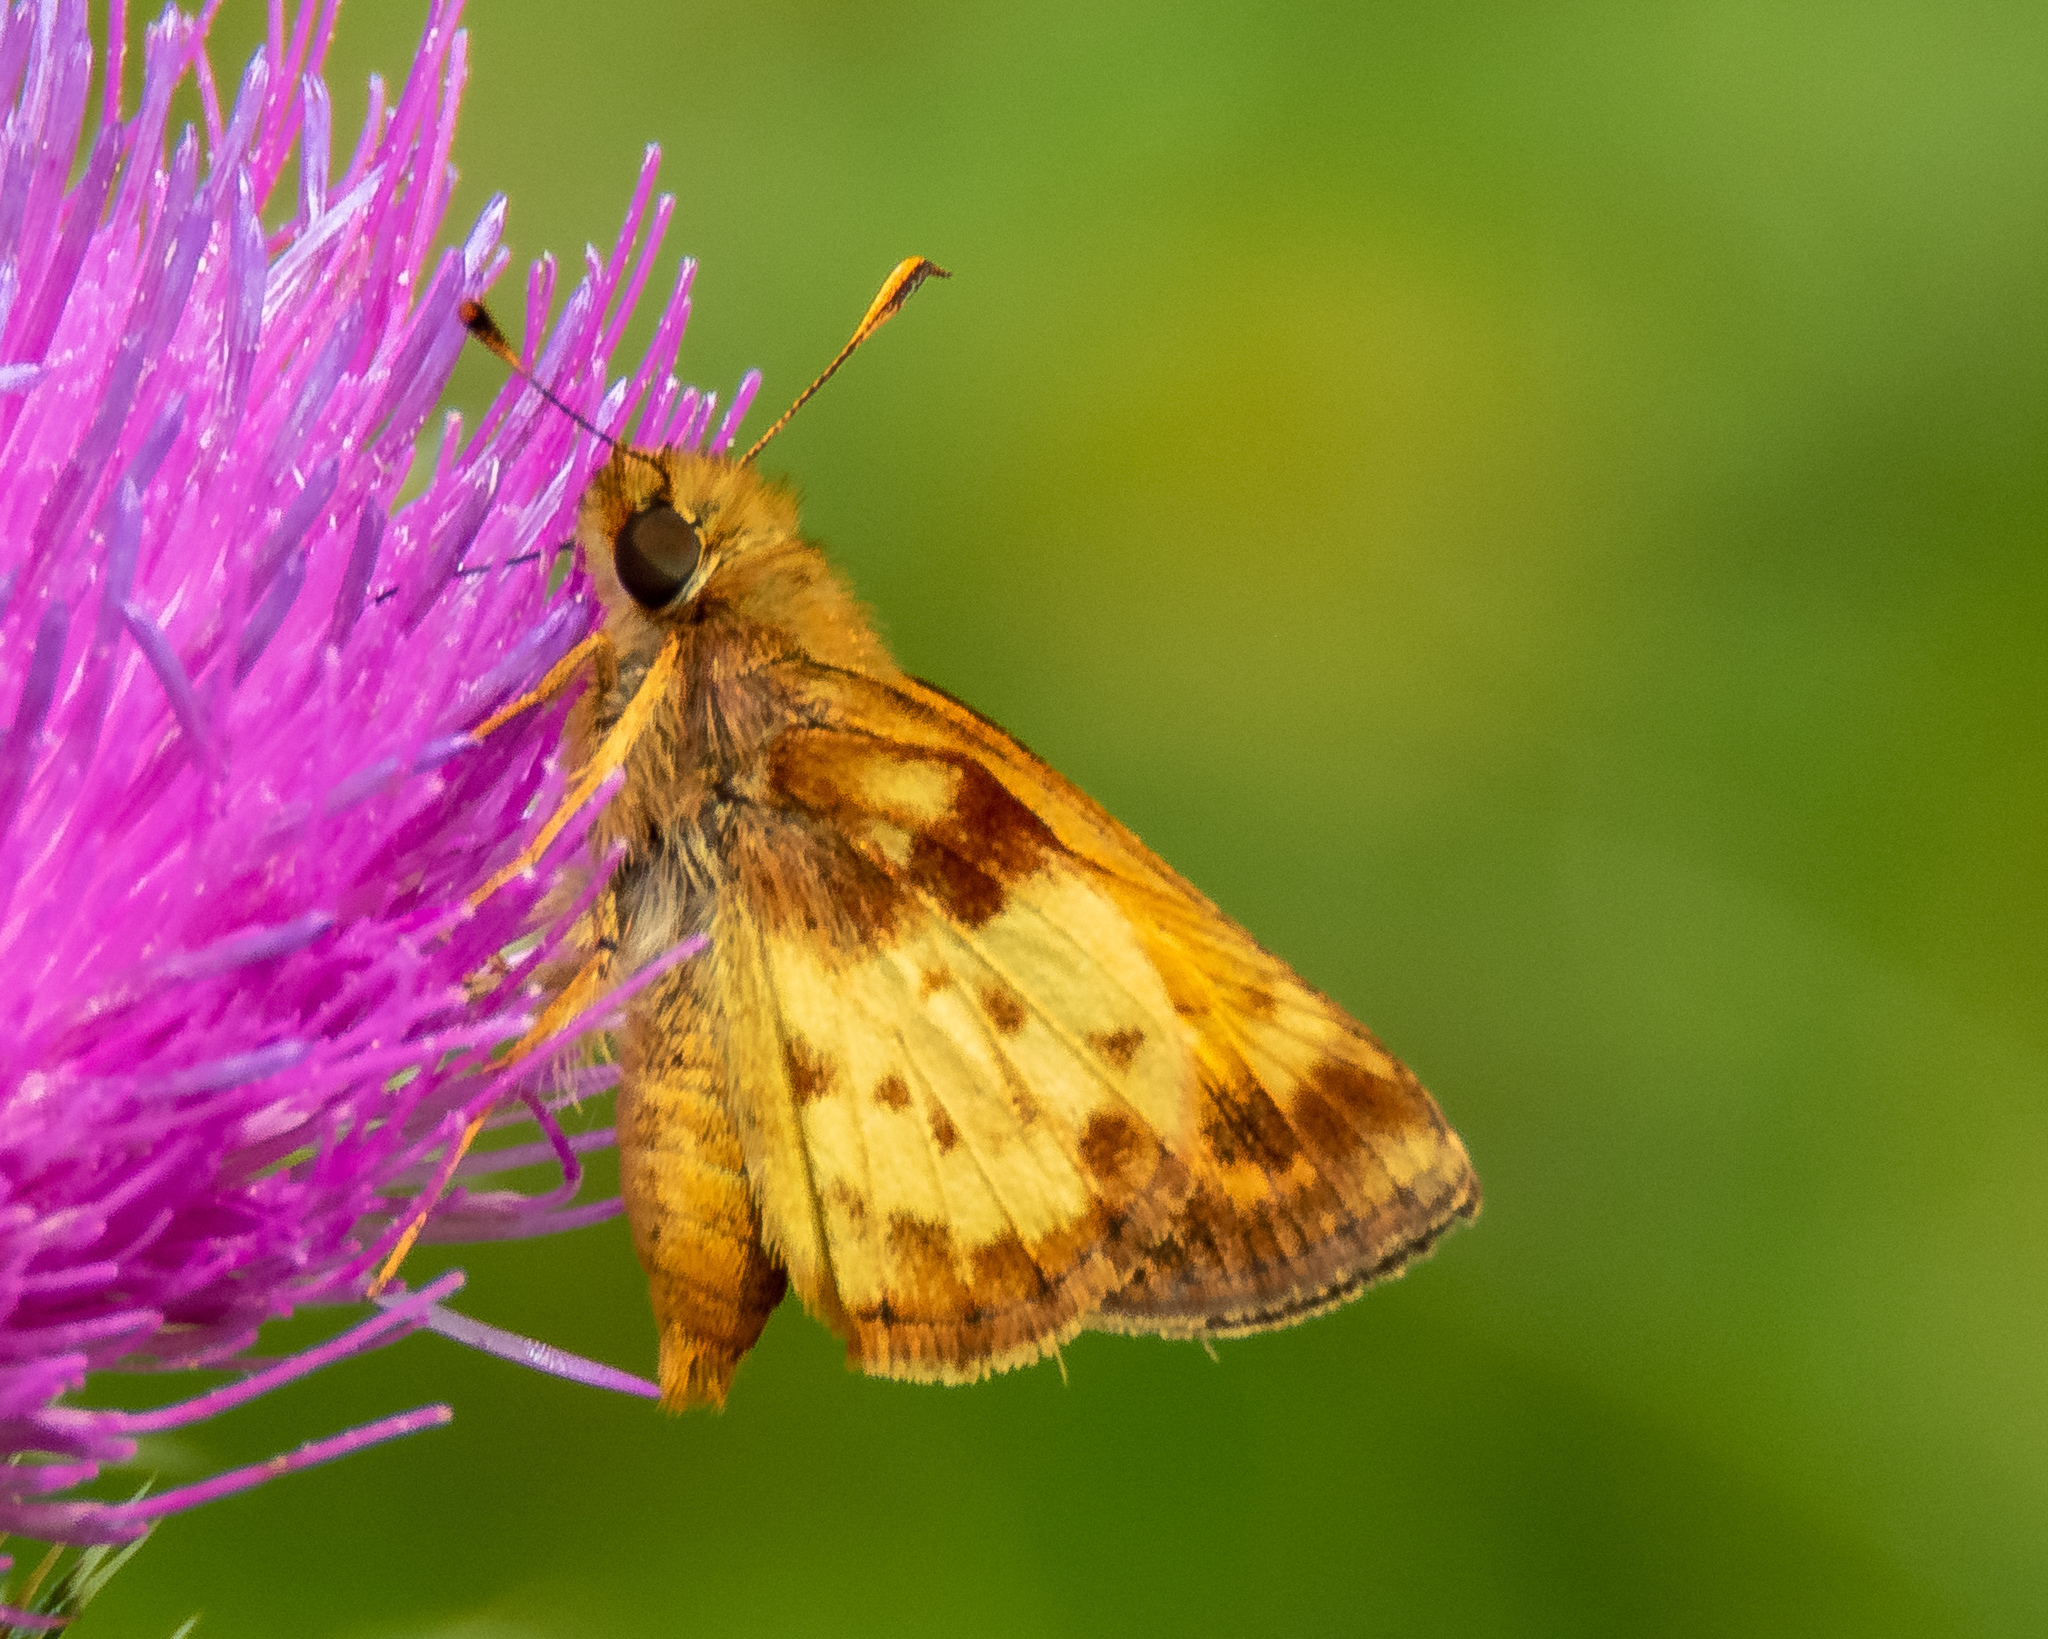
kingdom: Animalia
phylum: Arthropoda
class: Insecta
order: Lepidoptera
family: Hesperiidae
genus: Lon
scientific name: Lon zabulon
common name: Zabulon skipper
